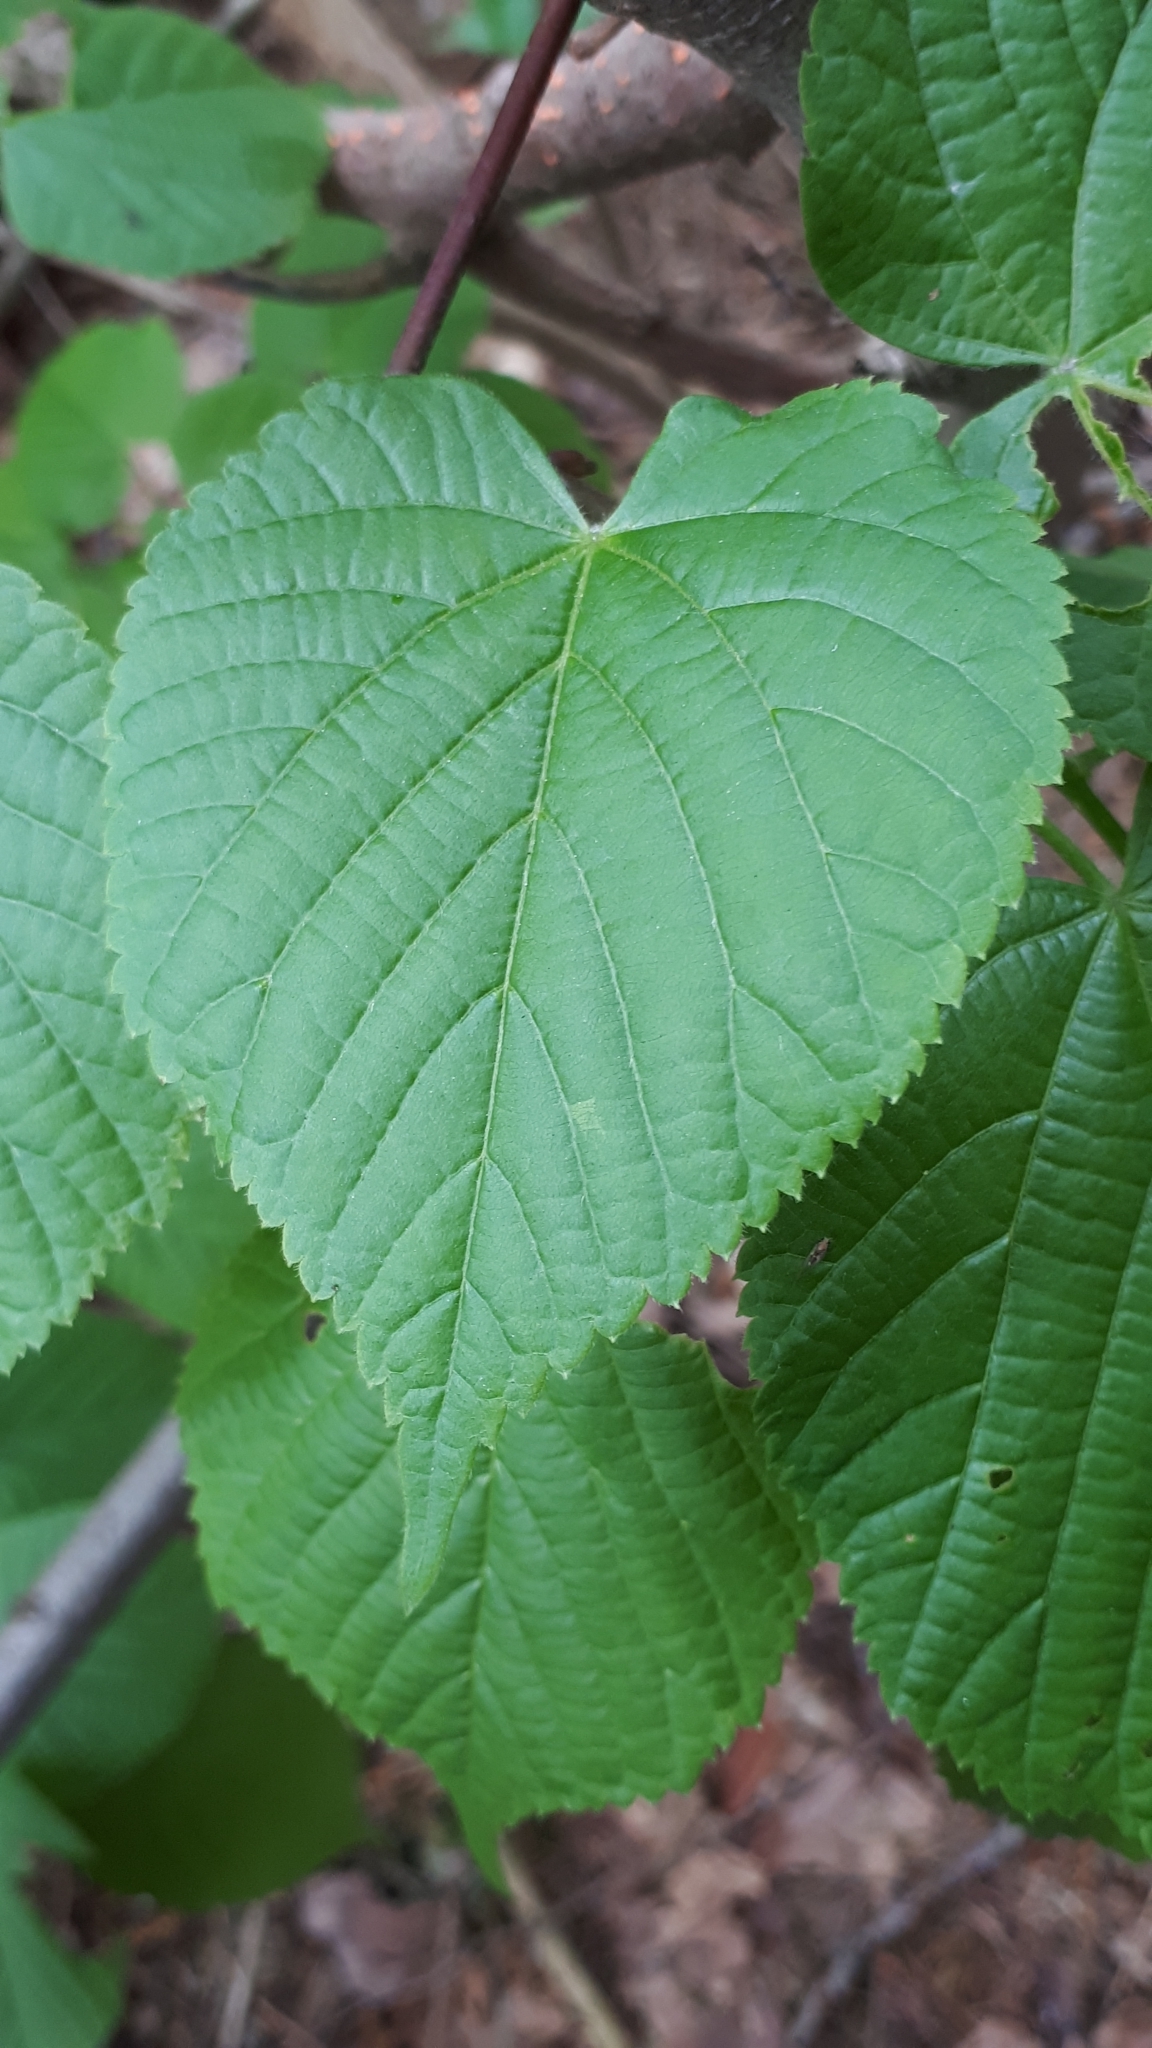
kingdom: Plantae
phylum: Tracheophyta
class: Magnoliopsida
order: Malvales
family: Malvaceae
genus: Tilia
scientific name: Tilia platyphyllos
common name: Large-leaved lime
